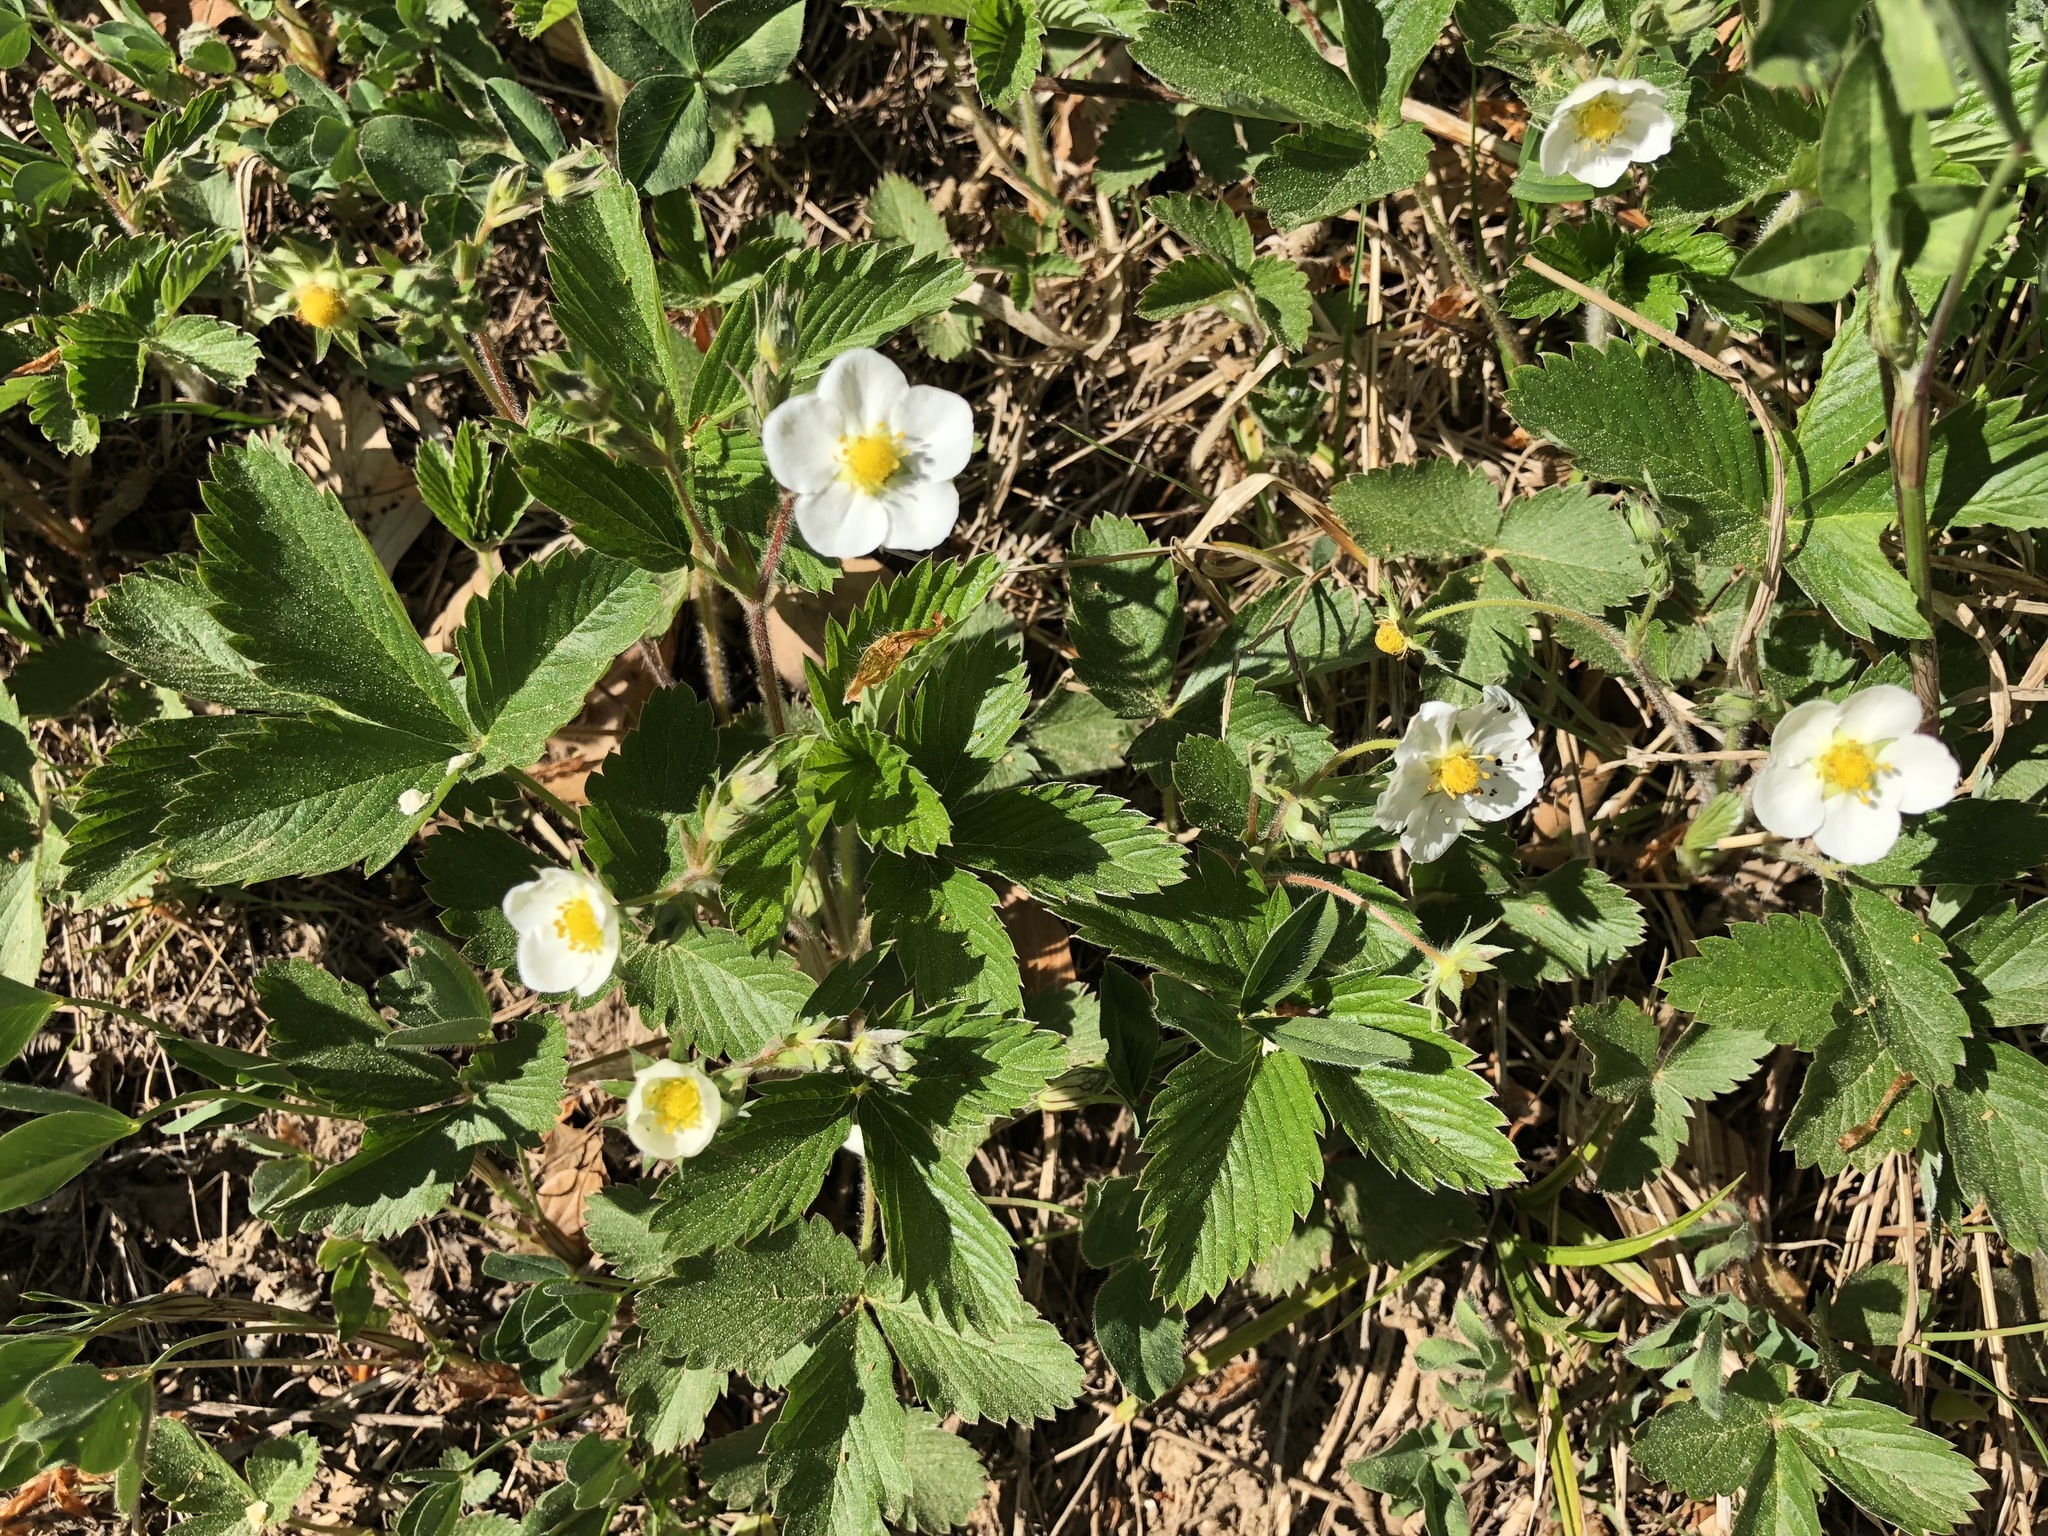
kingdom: Plantae
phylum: Tracheophyta
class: Magnoliopsida
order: Rosales
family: Rosaceae
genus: Fragaria
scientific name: Fragaria vesca
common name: Wild strawberry
